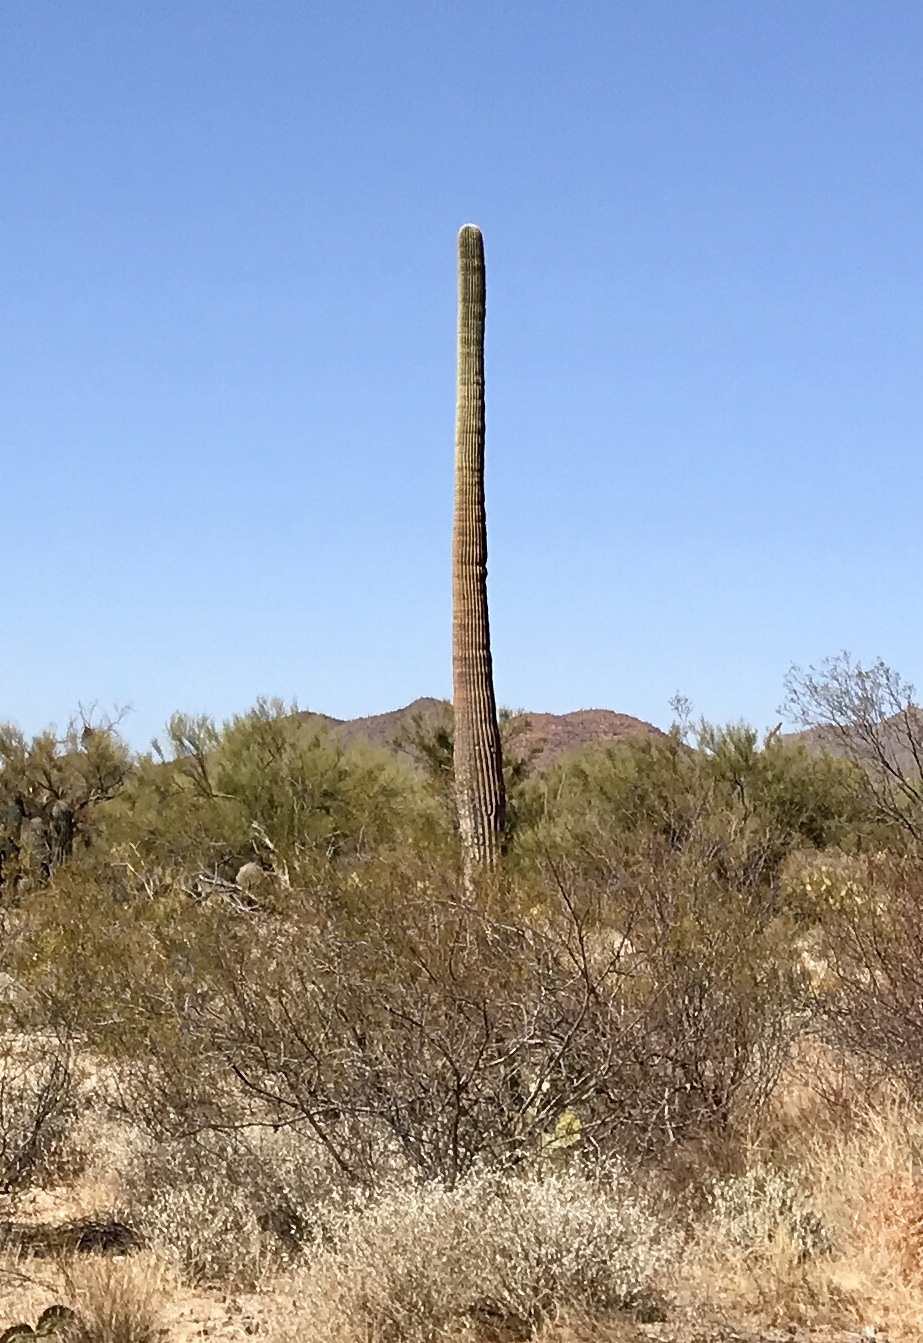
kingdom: Plantae
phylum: Tracheophyta
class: Magnoliopsida
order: Caryophyllales
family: Cactaceae
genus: Carnegiea
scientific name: Carnegiea gigantea
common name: Saguaro
